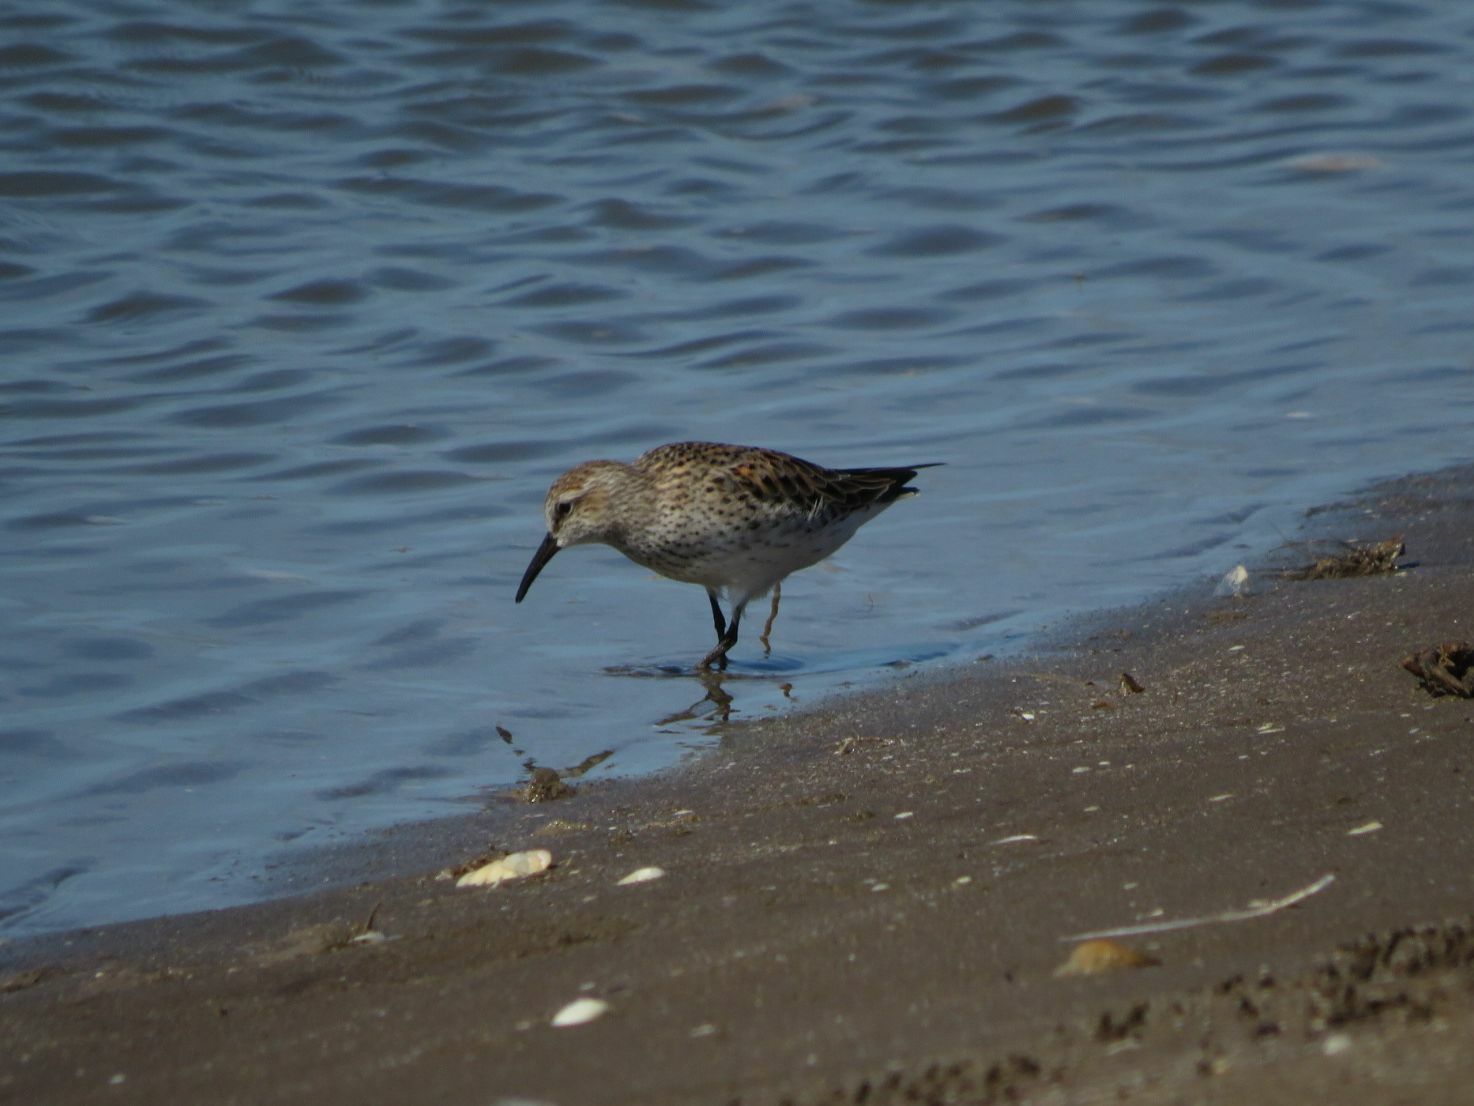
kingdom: Animalia
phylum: Chordata
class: Aves
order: Charadriiformes
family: Scolopacidae
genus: Calidris
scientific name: Calidris fuscicollis
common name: White-rumped sandpiper
